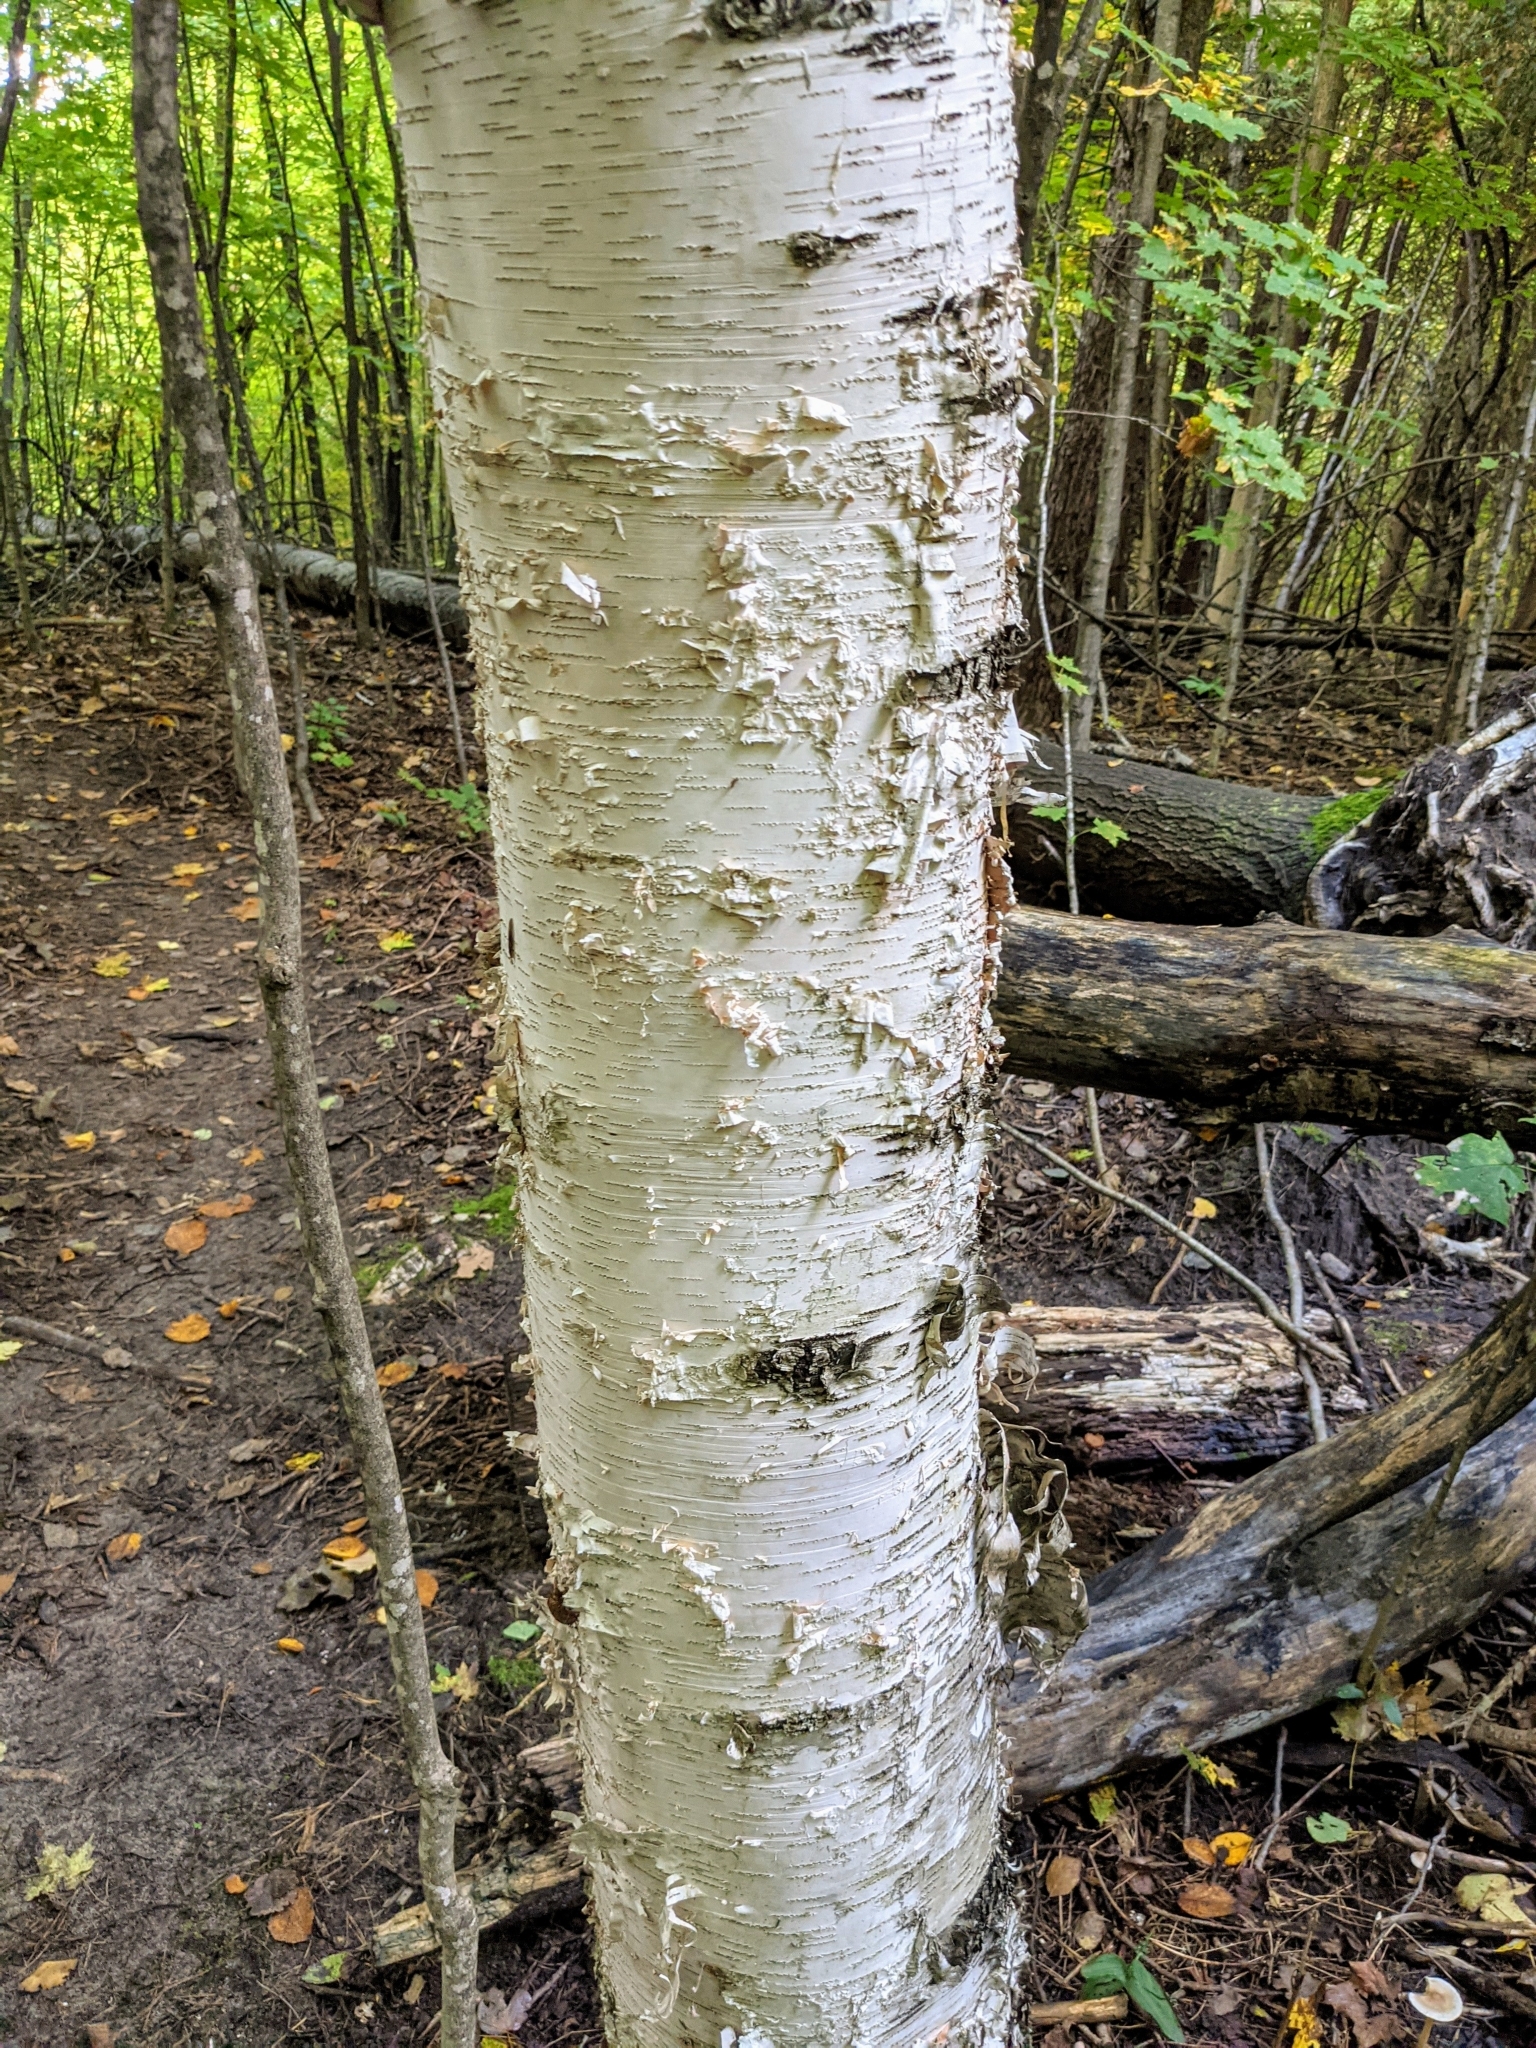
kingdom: Plantae
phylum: Tracheophyta
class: Magnoliopsida
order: Fagales
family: Betulaceae
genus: Betula
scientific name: Betula papyrifera
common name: Paper birch
